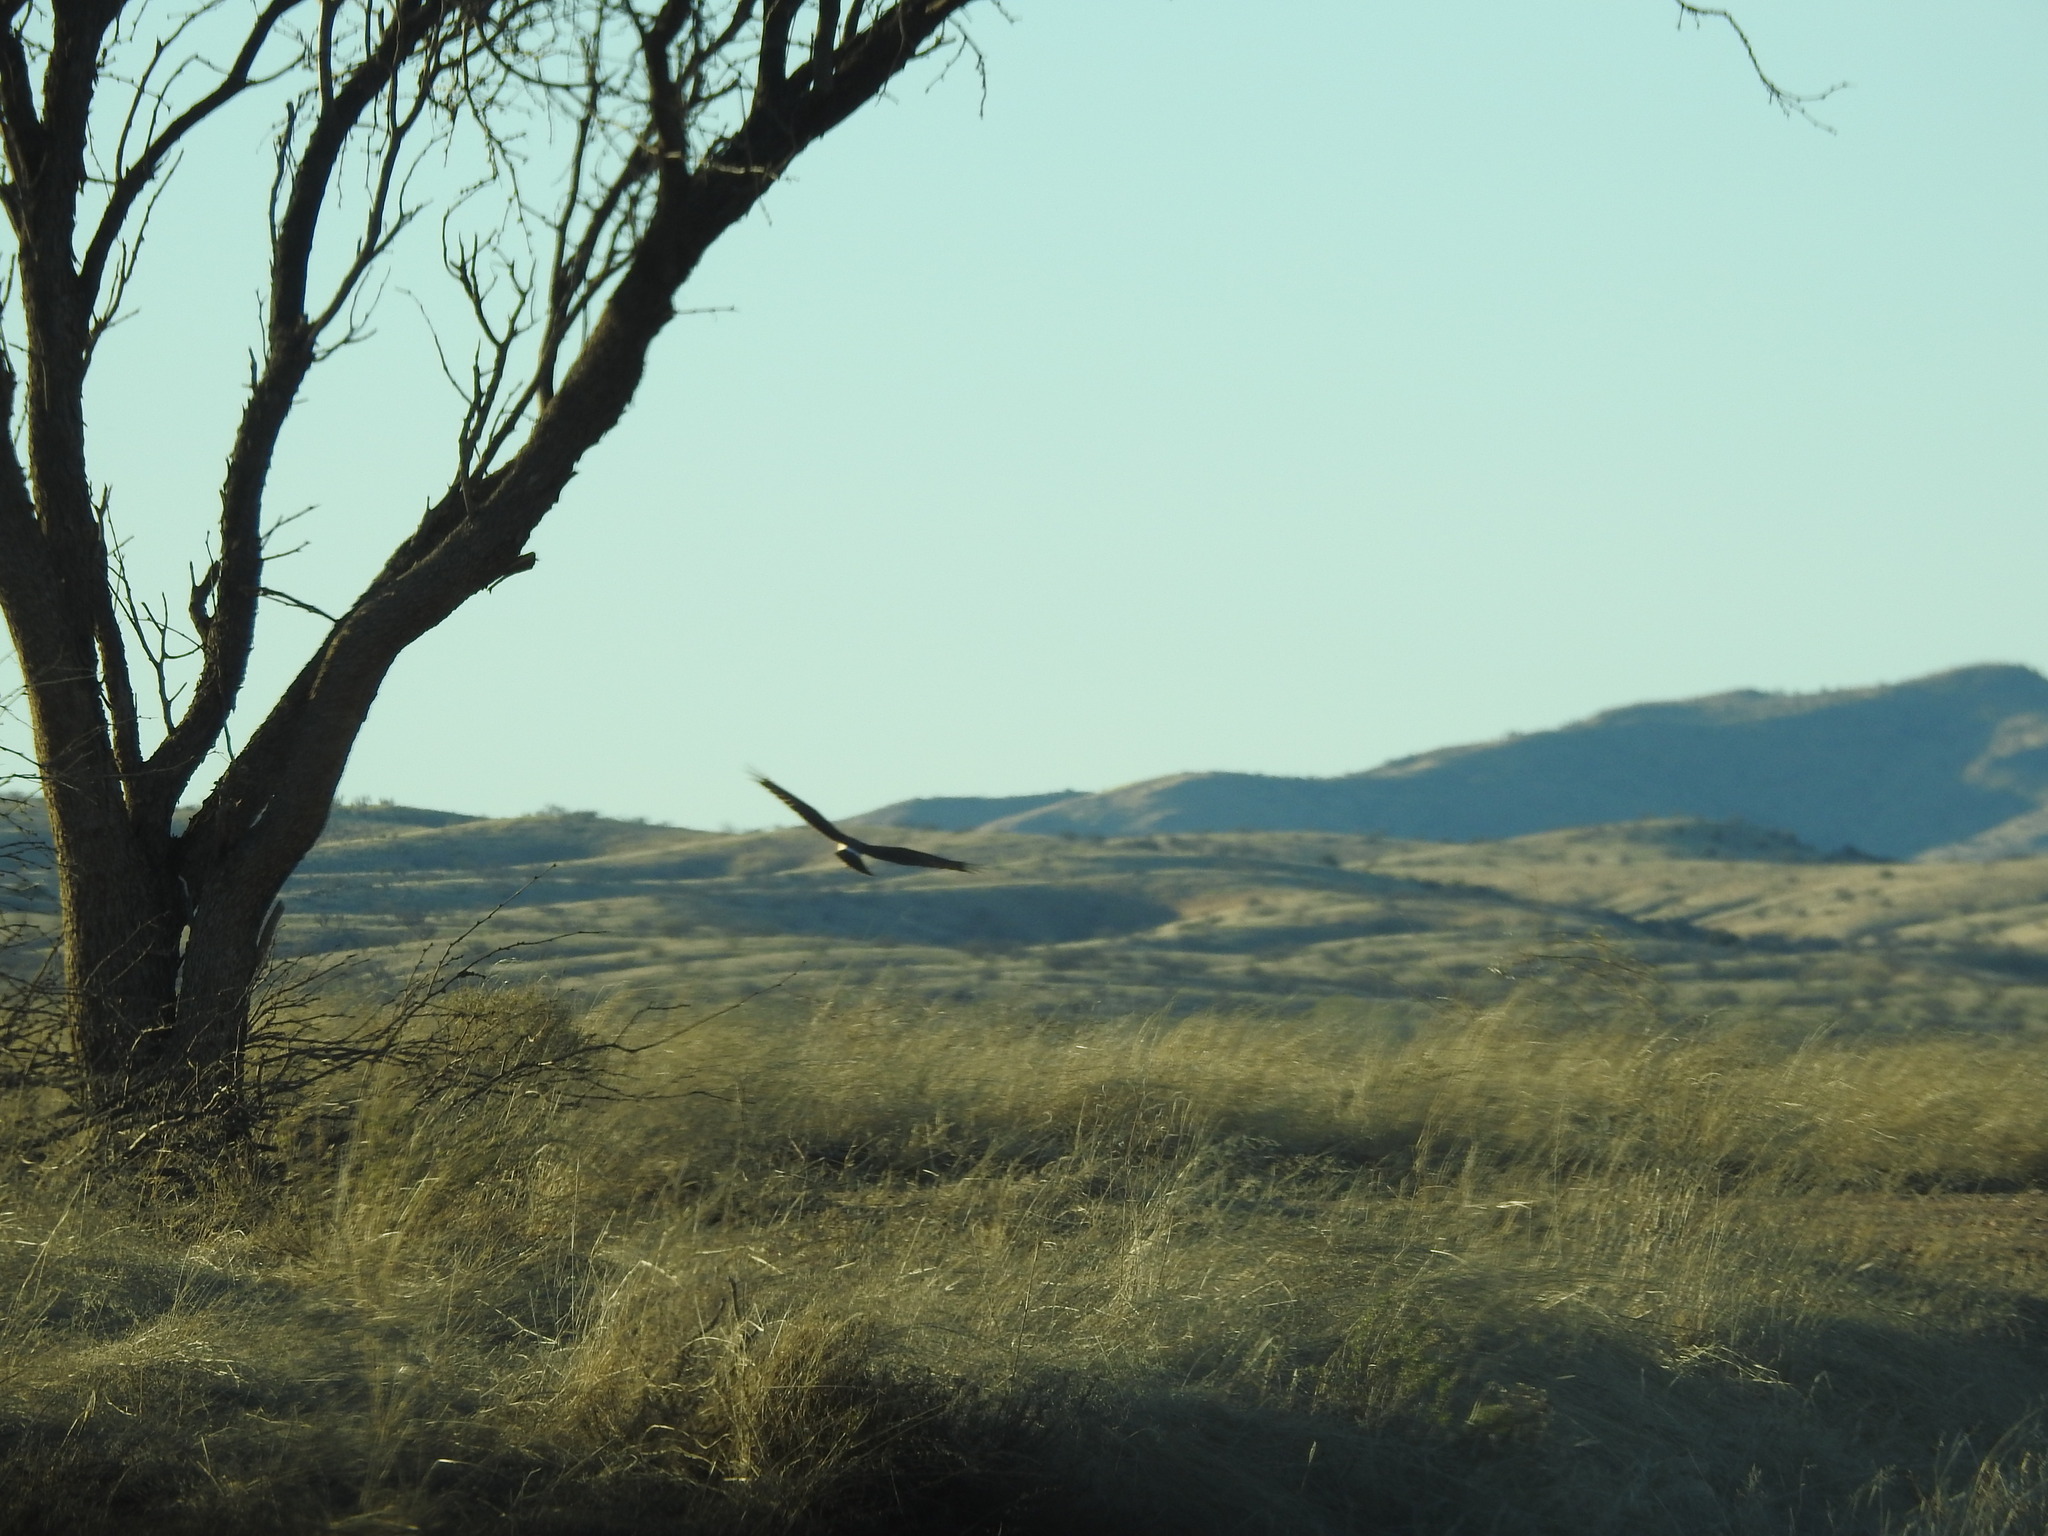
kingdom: Animalia
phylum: Chordata
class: Aves
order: Accipitriformes
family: Accipitridae
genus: Circus
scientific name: Circus cyaneus
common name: Hen harrier
